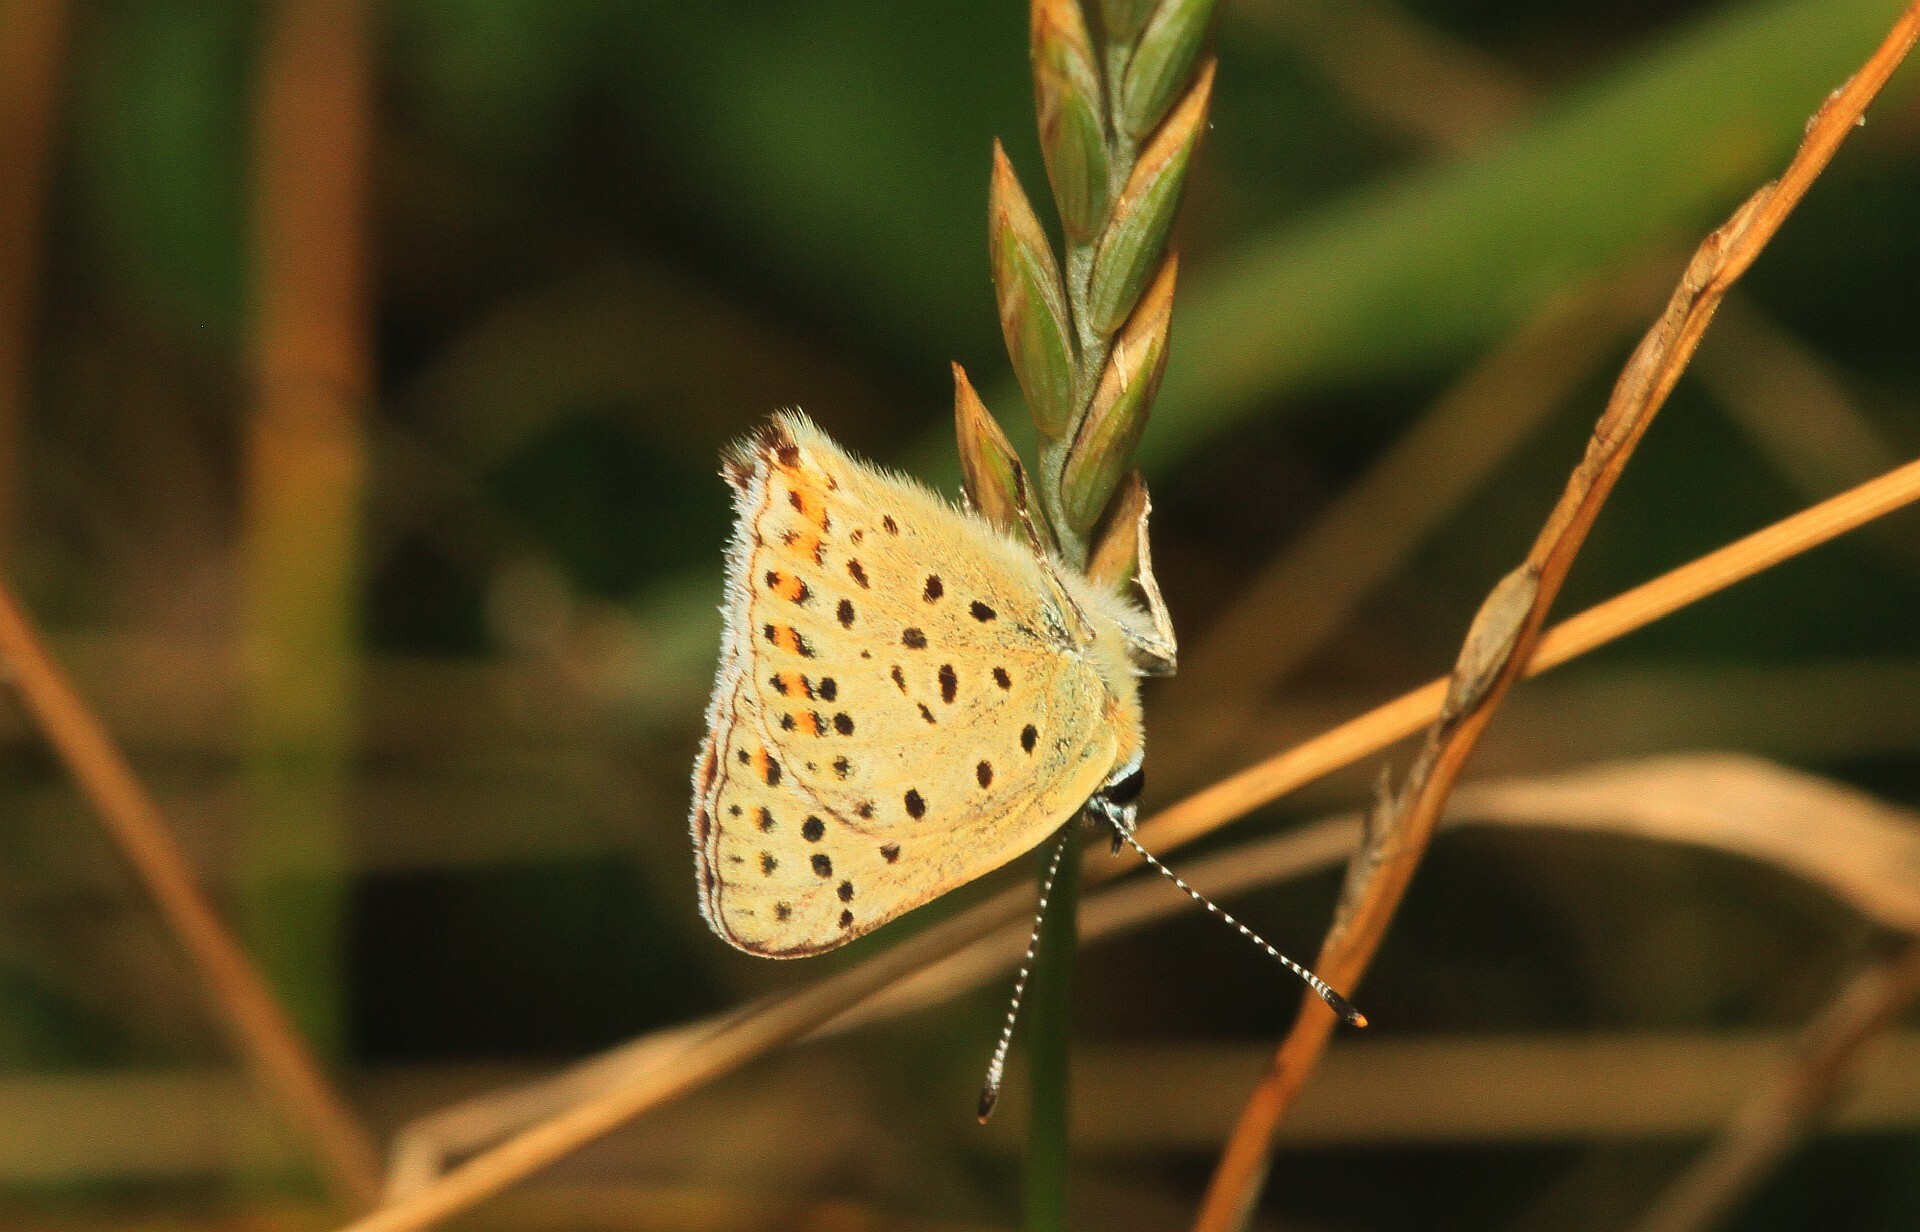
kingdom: Animalia
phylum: Arthropoda
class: Insecta
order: Lepidoptera
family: Lycaenidae
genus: Loweia
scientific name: Loweia tityrus
